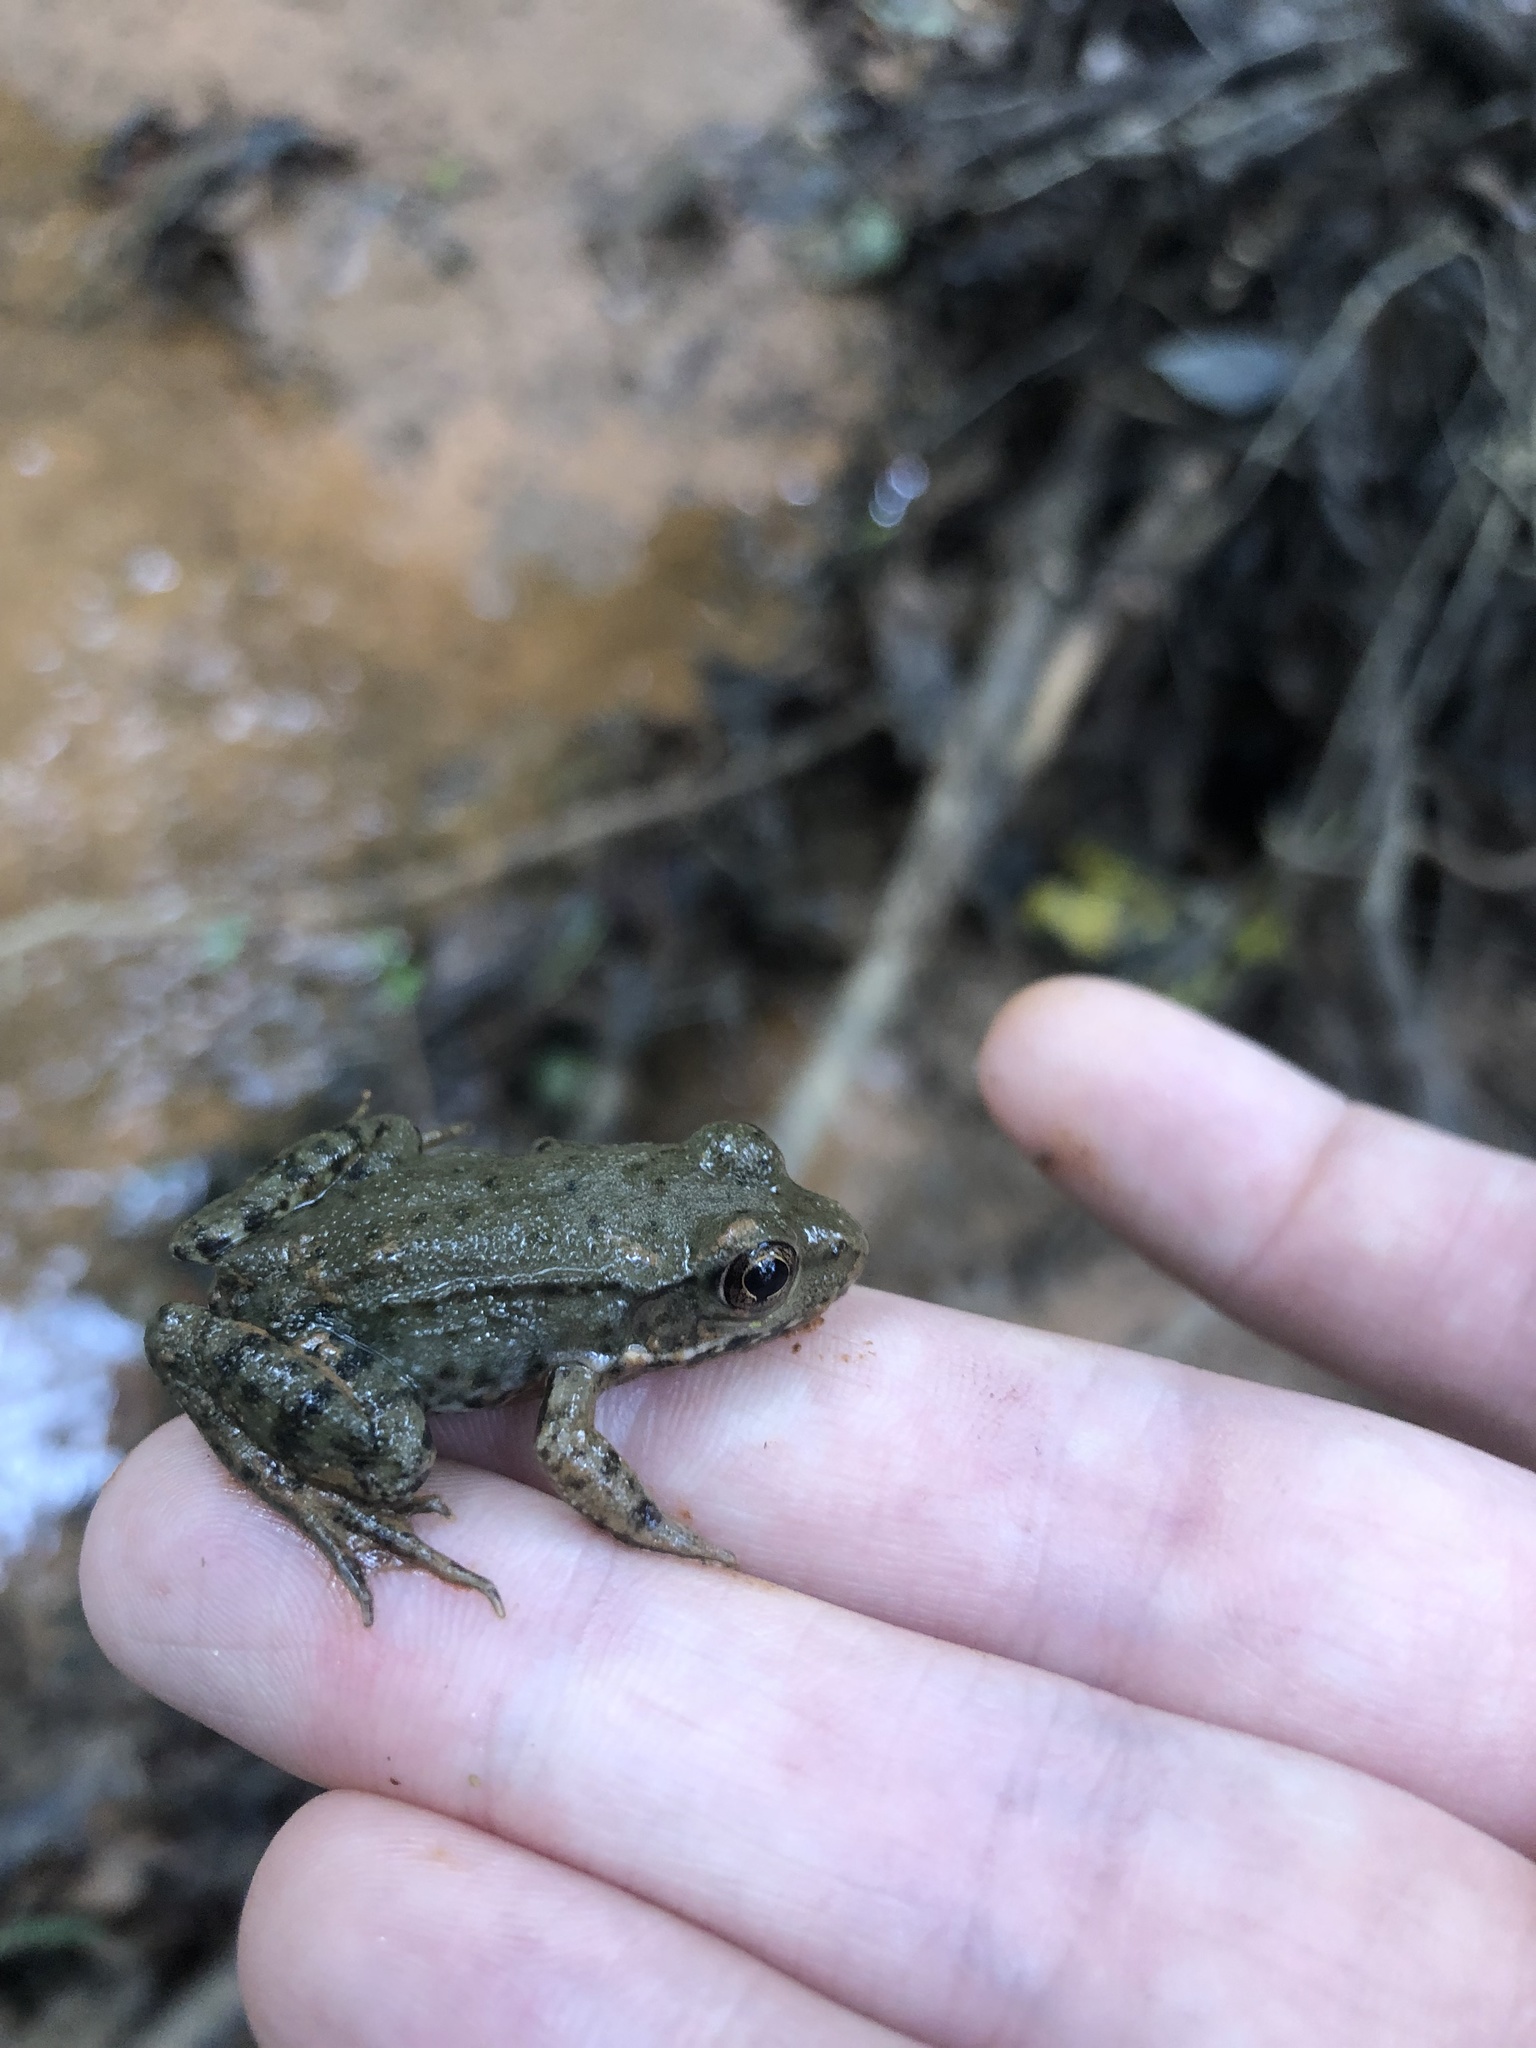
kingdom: Animalia
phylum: Chordata
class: Amphibia
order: Anura
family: Ranidae
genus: Lithobates
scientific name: Lithobates clamitans
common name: Green frog
